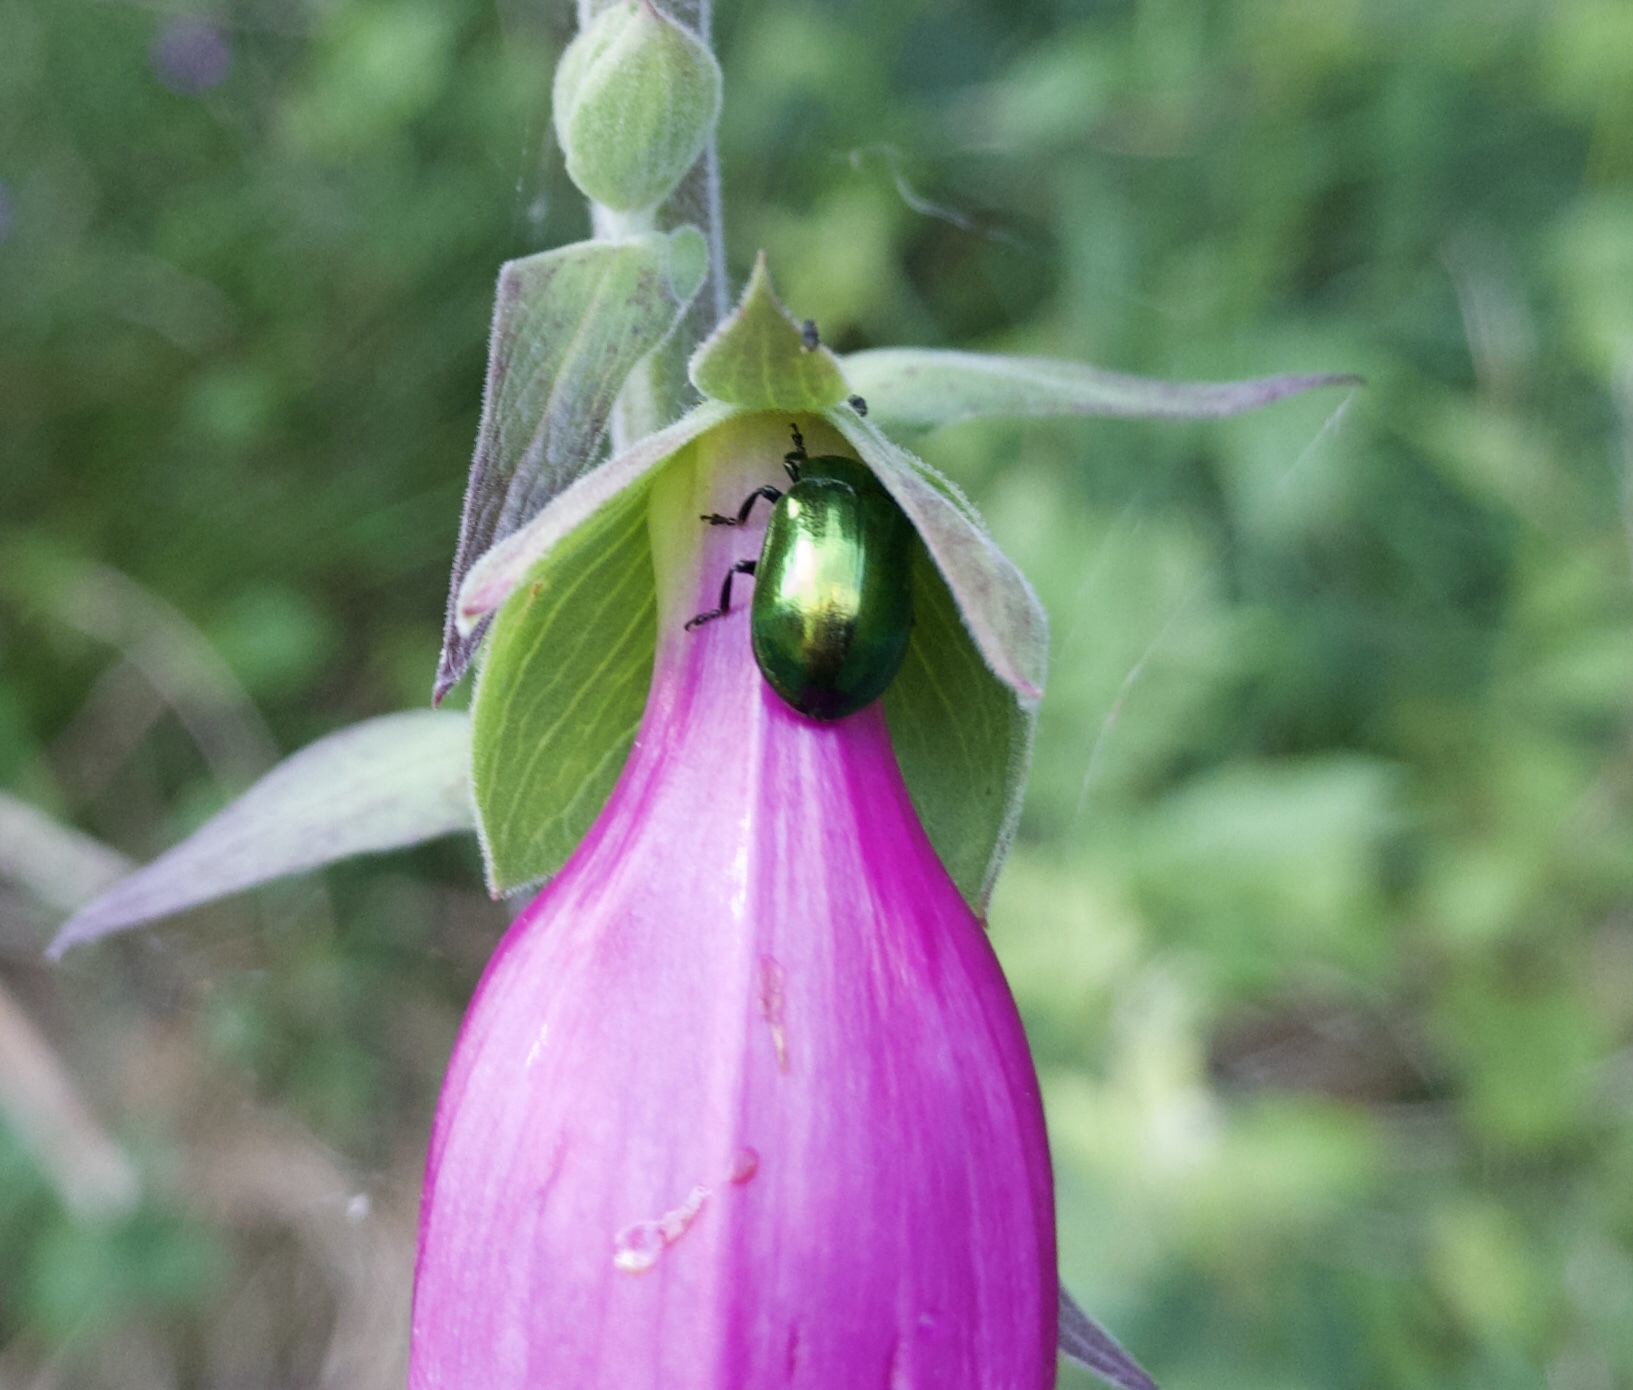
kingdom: Animalia
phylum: Arthropoda
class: Insecta
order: Coleoptera
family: Chrysomelidae
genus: Plagiosterna
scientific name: Plagiosterna aenea
